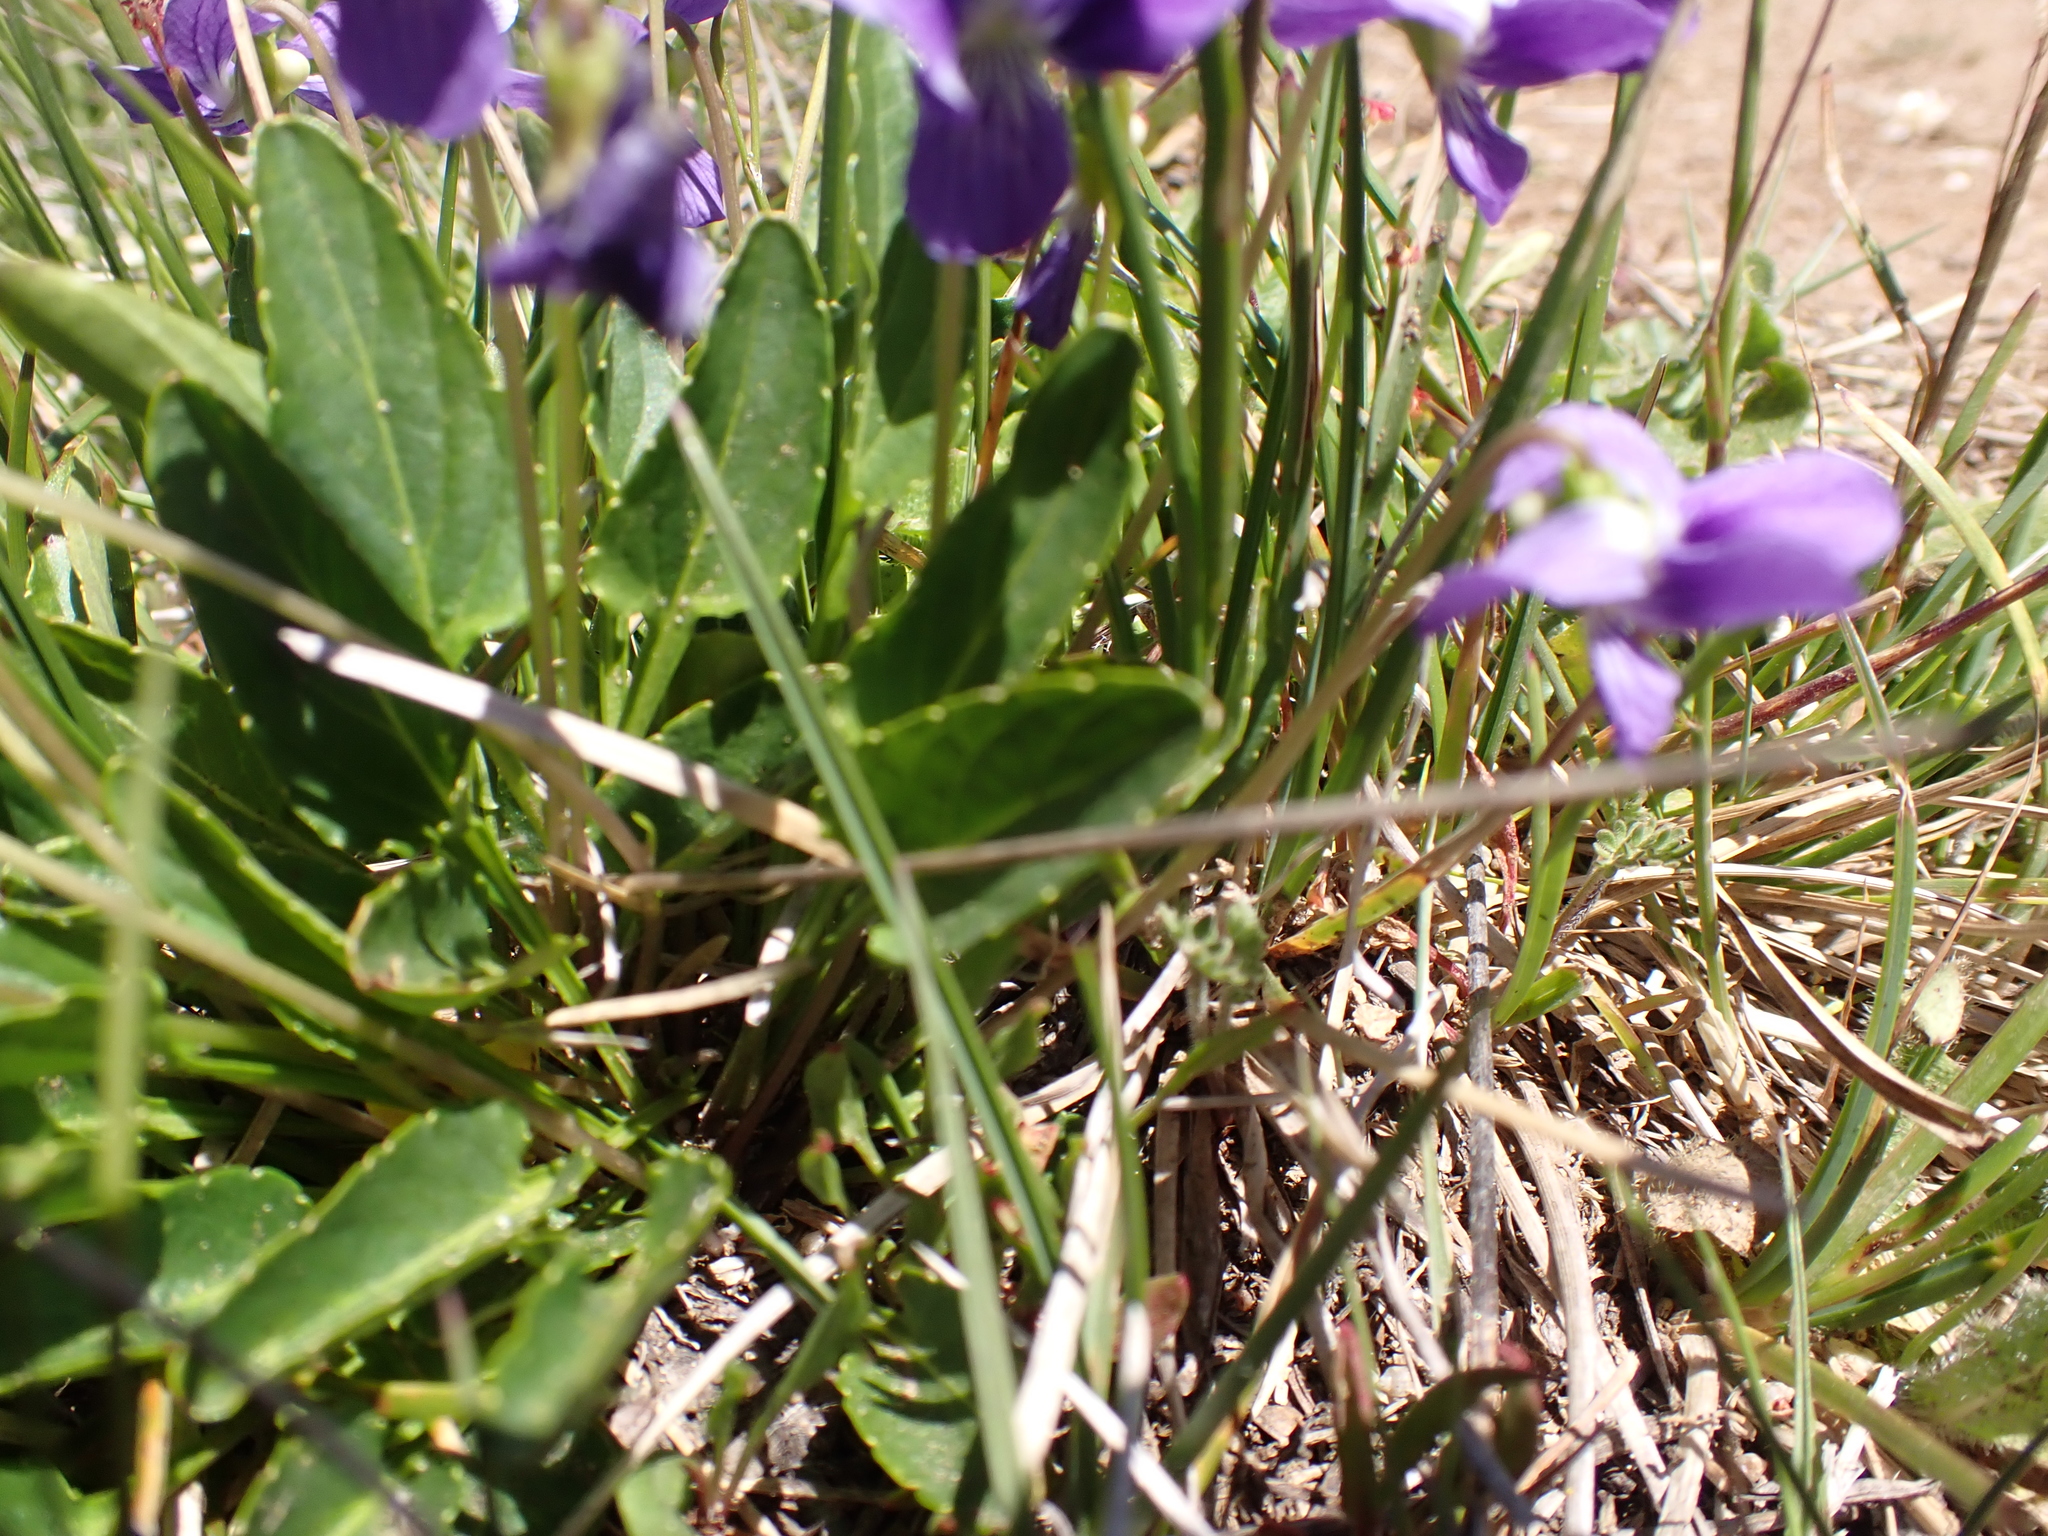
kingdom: Plantae
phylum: Tracheophyta
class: Magnoliopsida
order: Malpighiales
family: Violaceae
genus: Viola
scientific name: Viola betonicifolia
